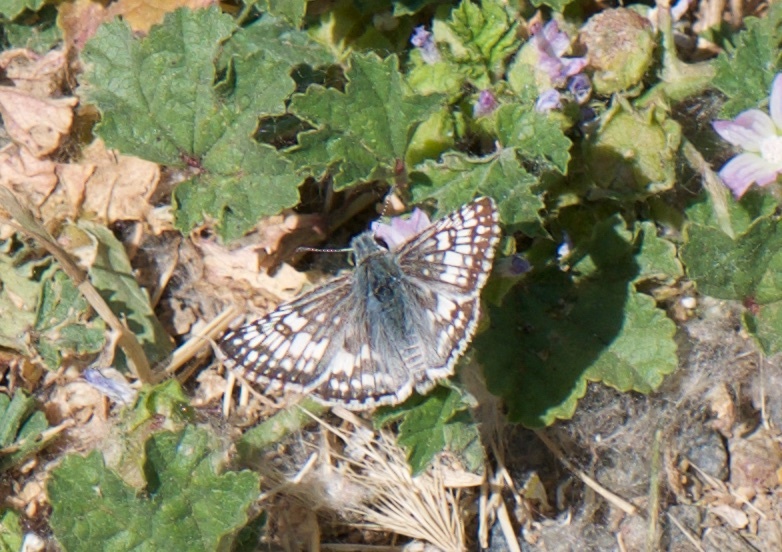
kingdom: Animalia
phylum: Arthropoda
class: Insecta
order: Lepidoptera
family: Hesperiidae
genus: Burnsius
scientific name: Burnsius communis
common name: Common checkered-skipper
